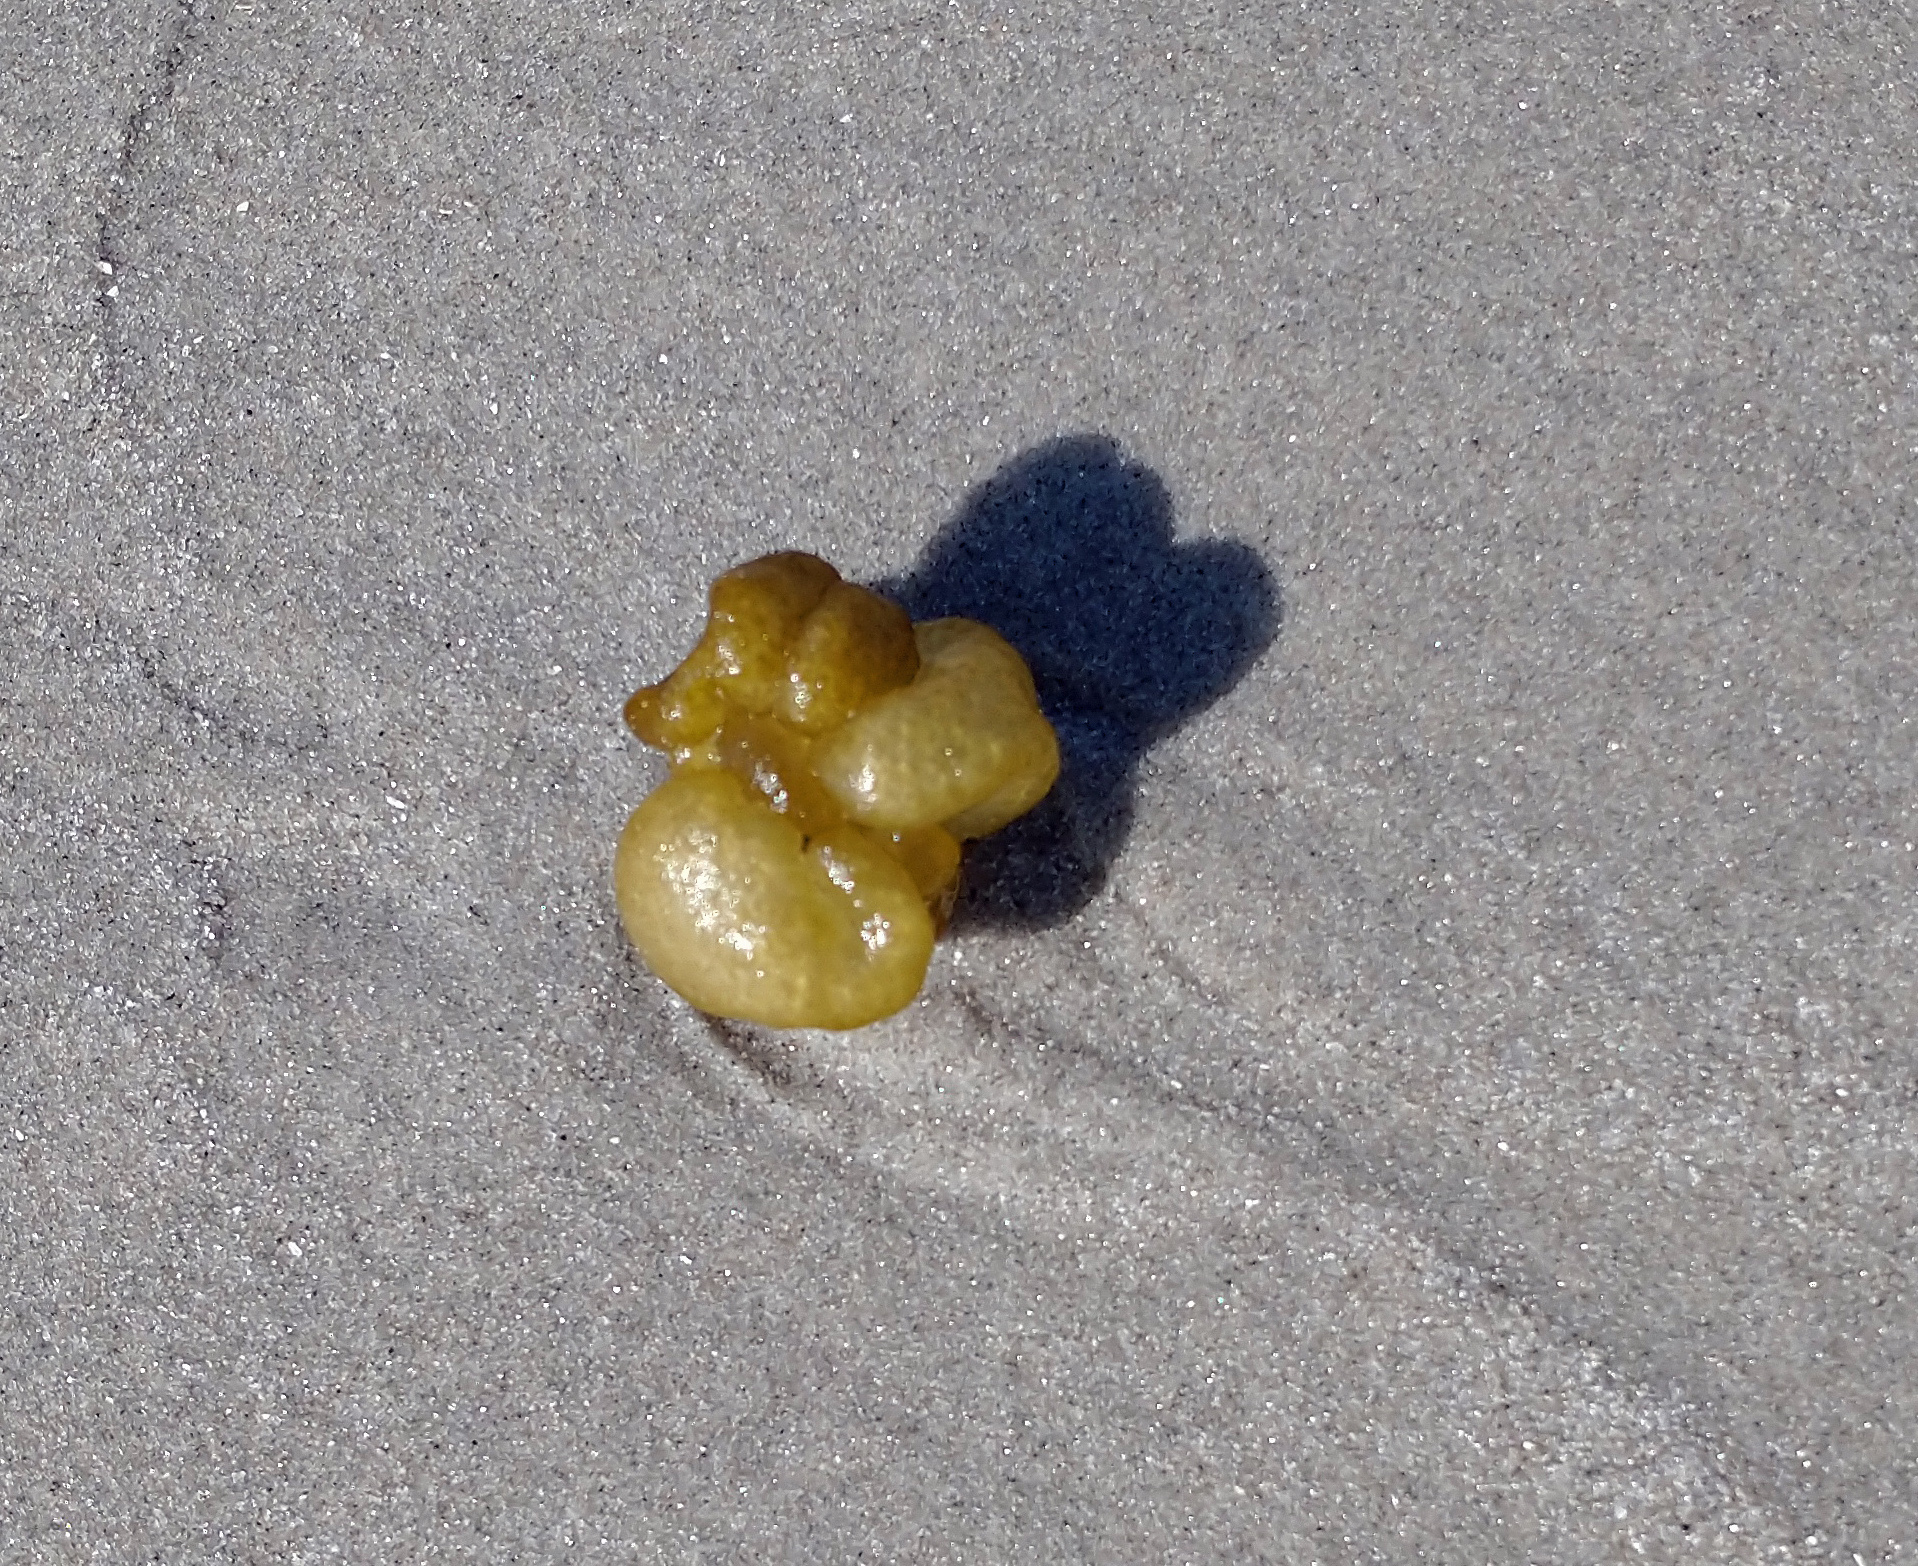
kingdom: Chromista
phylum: Ochrophyta
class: Phaeophyceae
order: Scytosiphonales
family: Scytosiphonaceae
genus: Colpomenia
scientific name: Colpomenia peregrina
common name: Oyster thief
